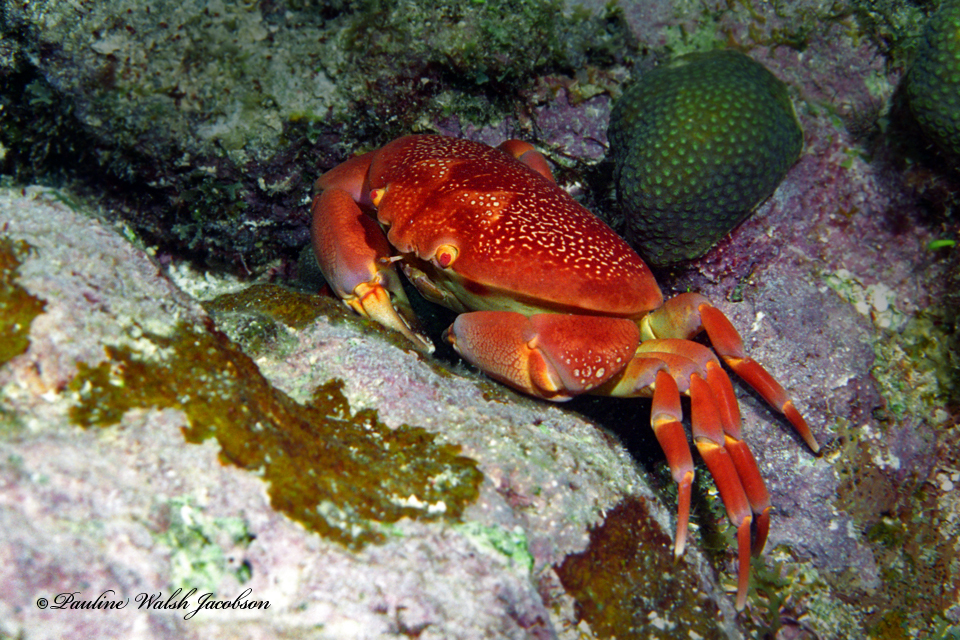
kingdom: Animalia
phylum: Arthropoda
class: Malacostraca
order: Decapoda
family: Carpiliidae
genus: Carpilius
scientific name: Carpilius corallinus
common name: Batwing coral crab
